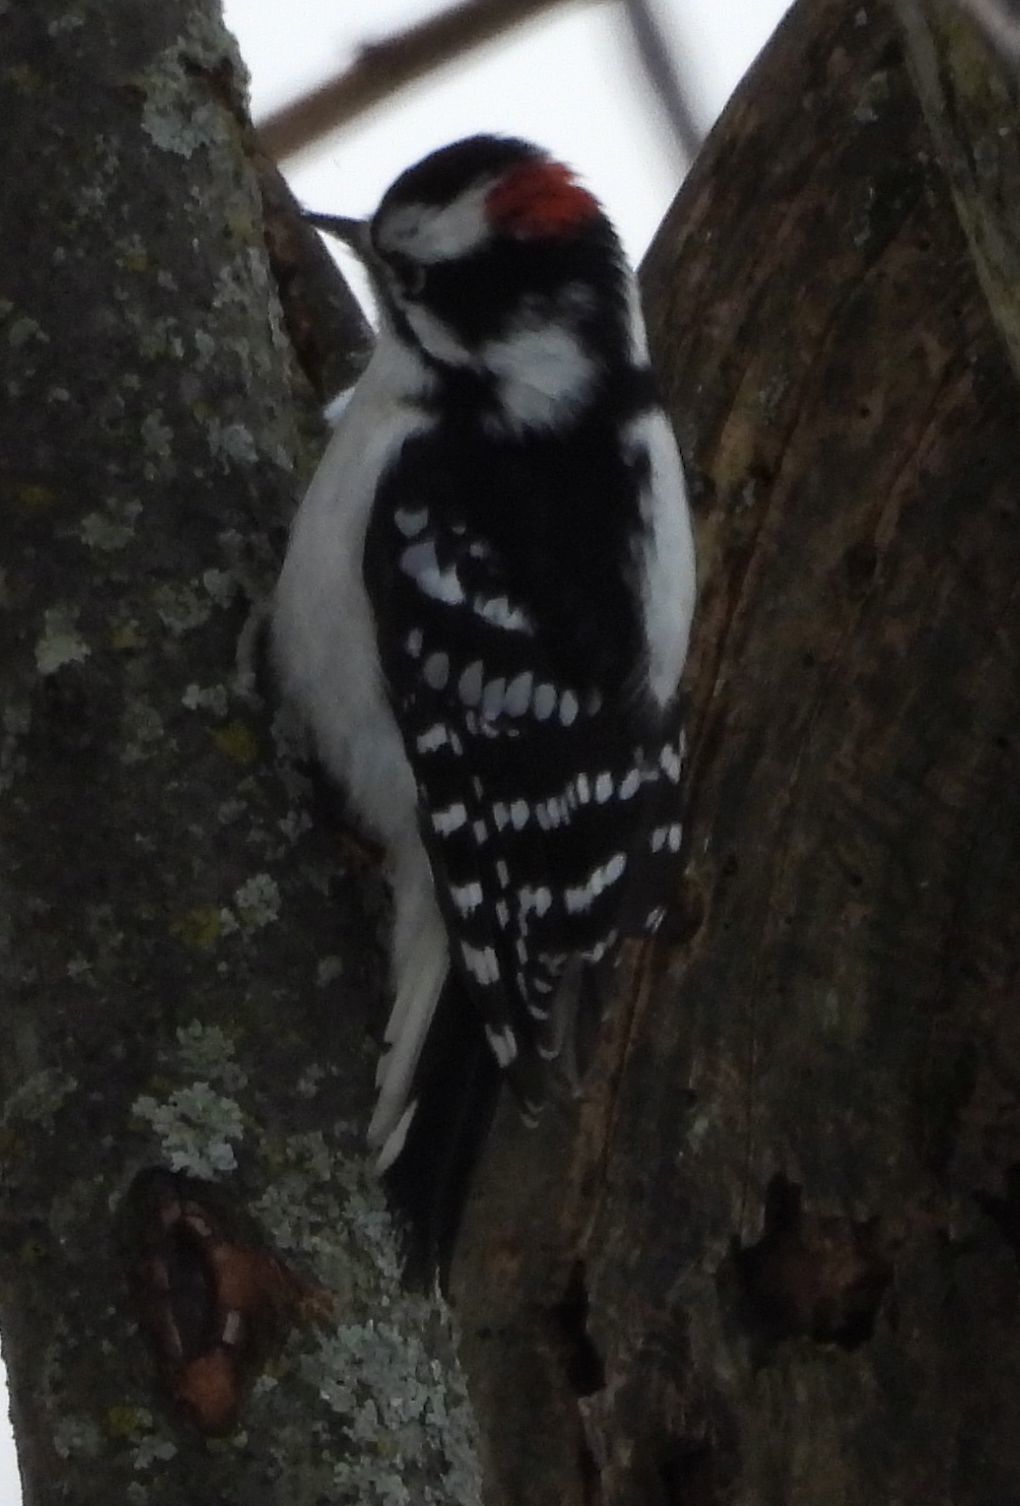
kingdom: Animalia
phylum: Chordata
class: Aves
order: Piciformes
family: Picidae
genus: Dryobates
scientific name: Dryobates pubescens
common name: Downy woodpecker
